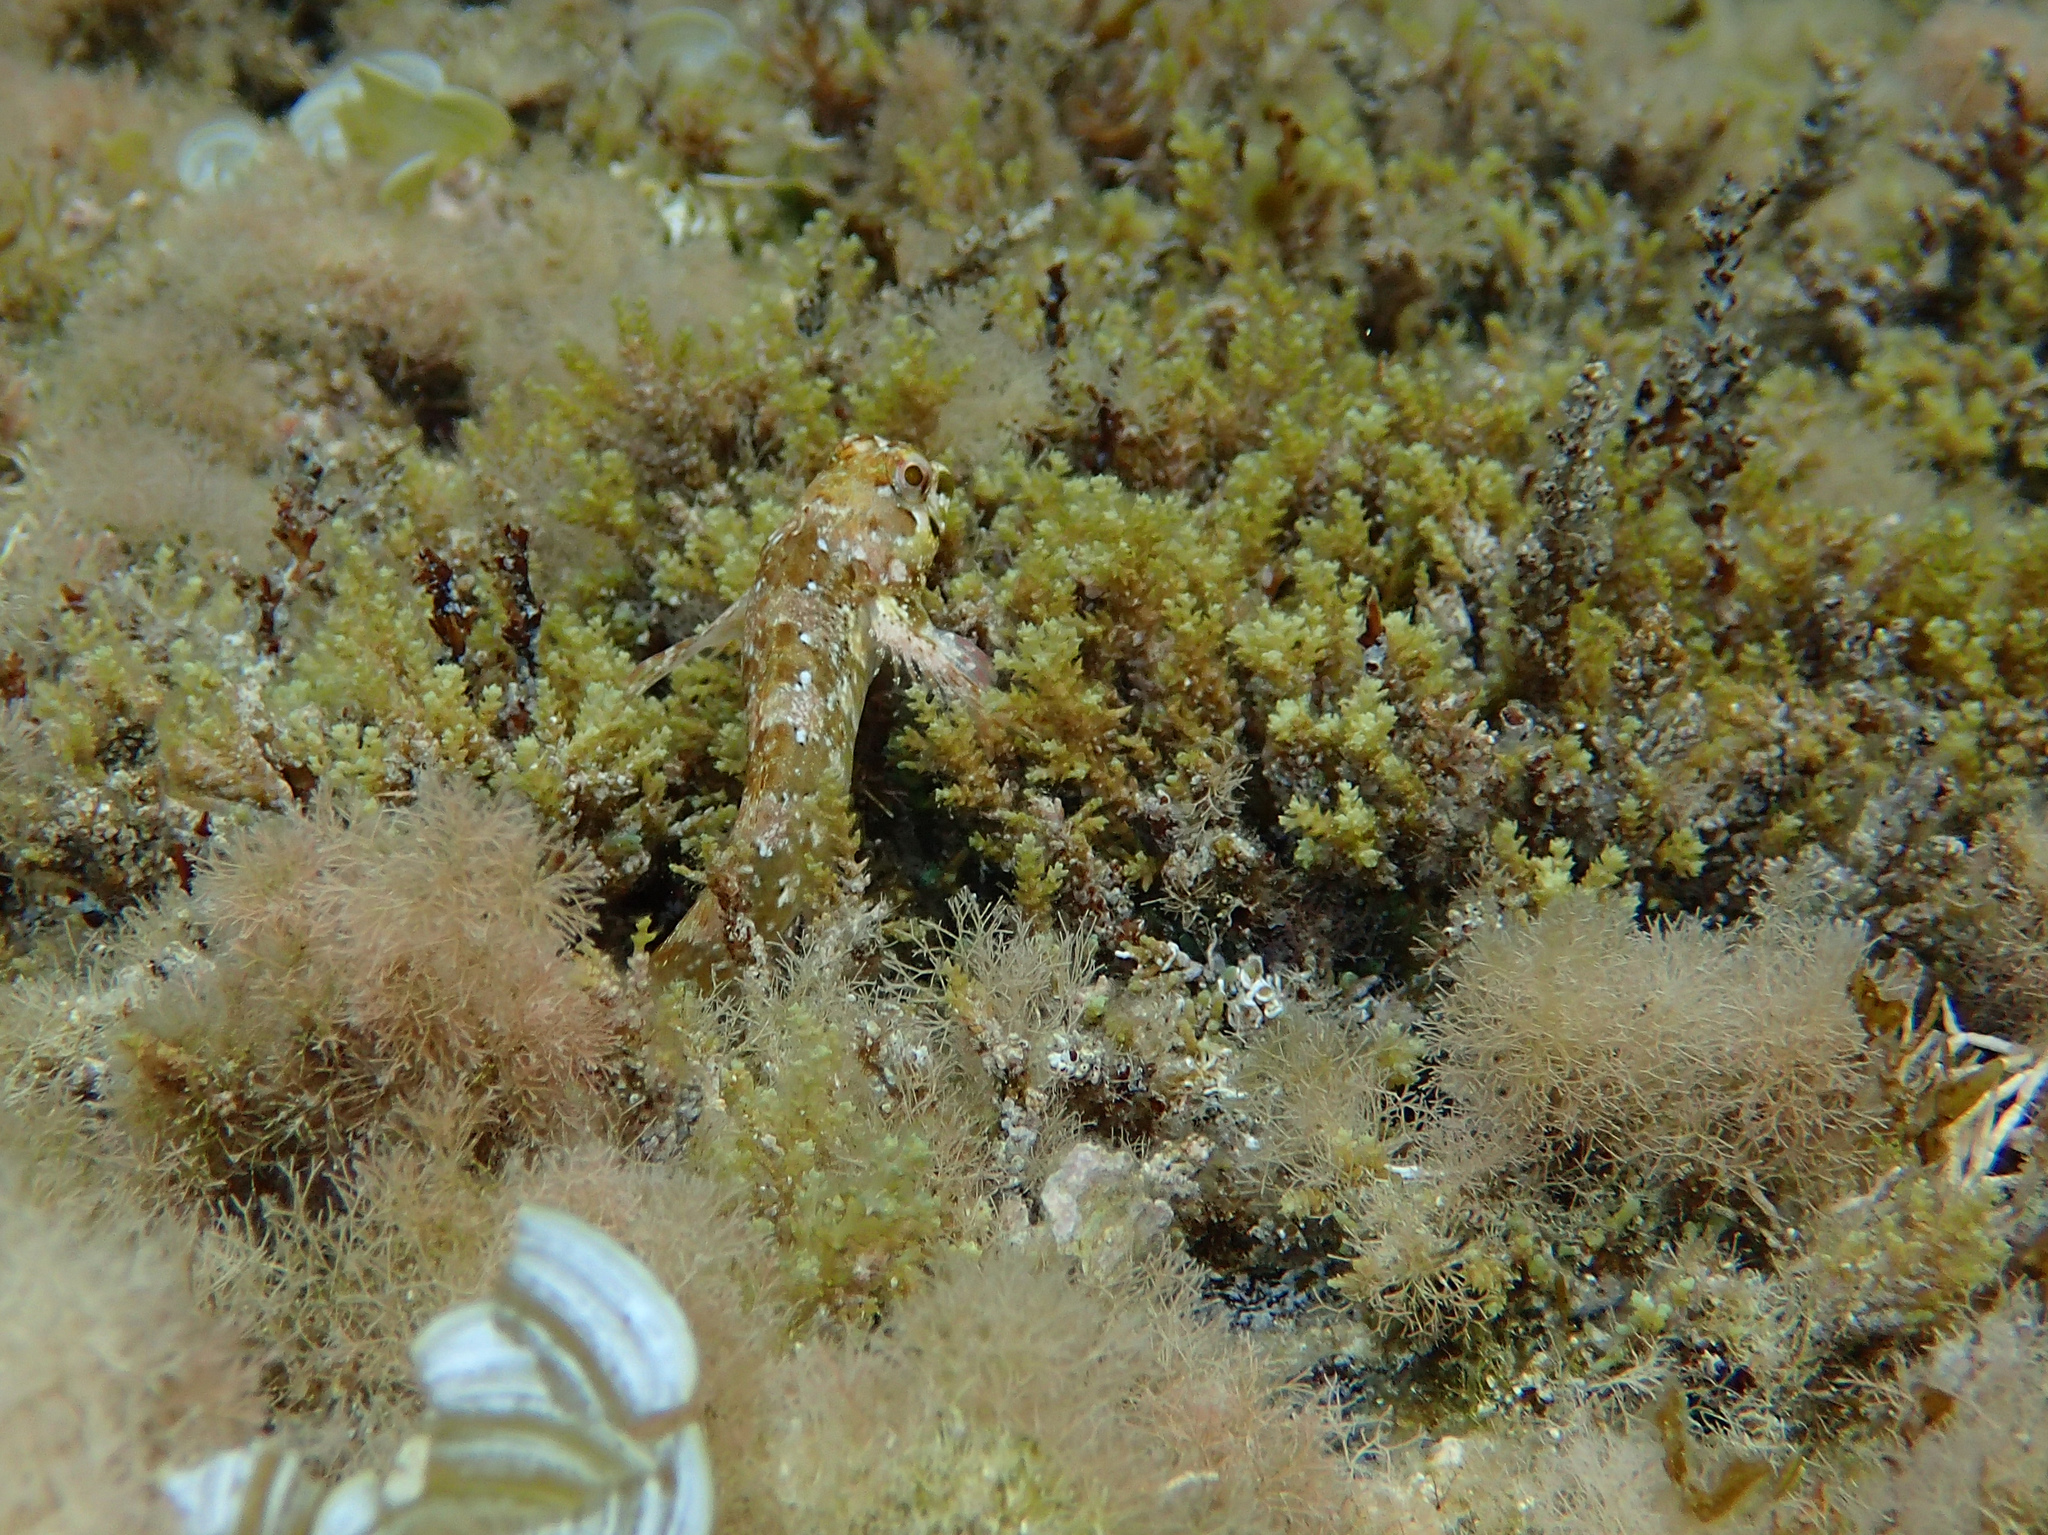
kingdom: Animalia
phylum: Chordata
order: Perciformes
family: Blenniidae
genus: Lipophrys
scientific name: Lipophrys trigloides
